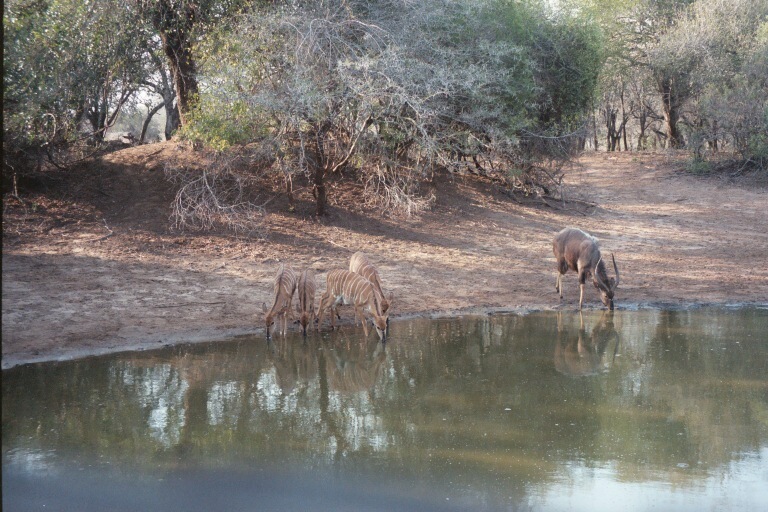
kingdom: Animalia
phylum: Chordata
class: Mammalia
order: Artiodactyla
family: Bovidae
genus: Tragelaphus
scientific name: Tragelaphus angasii
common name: Nyala
